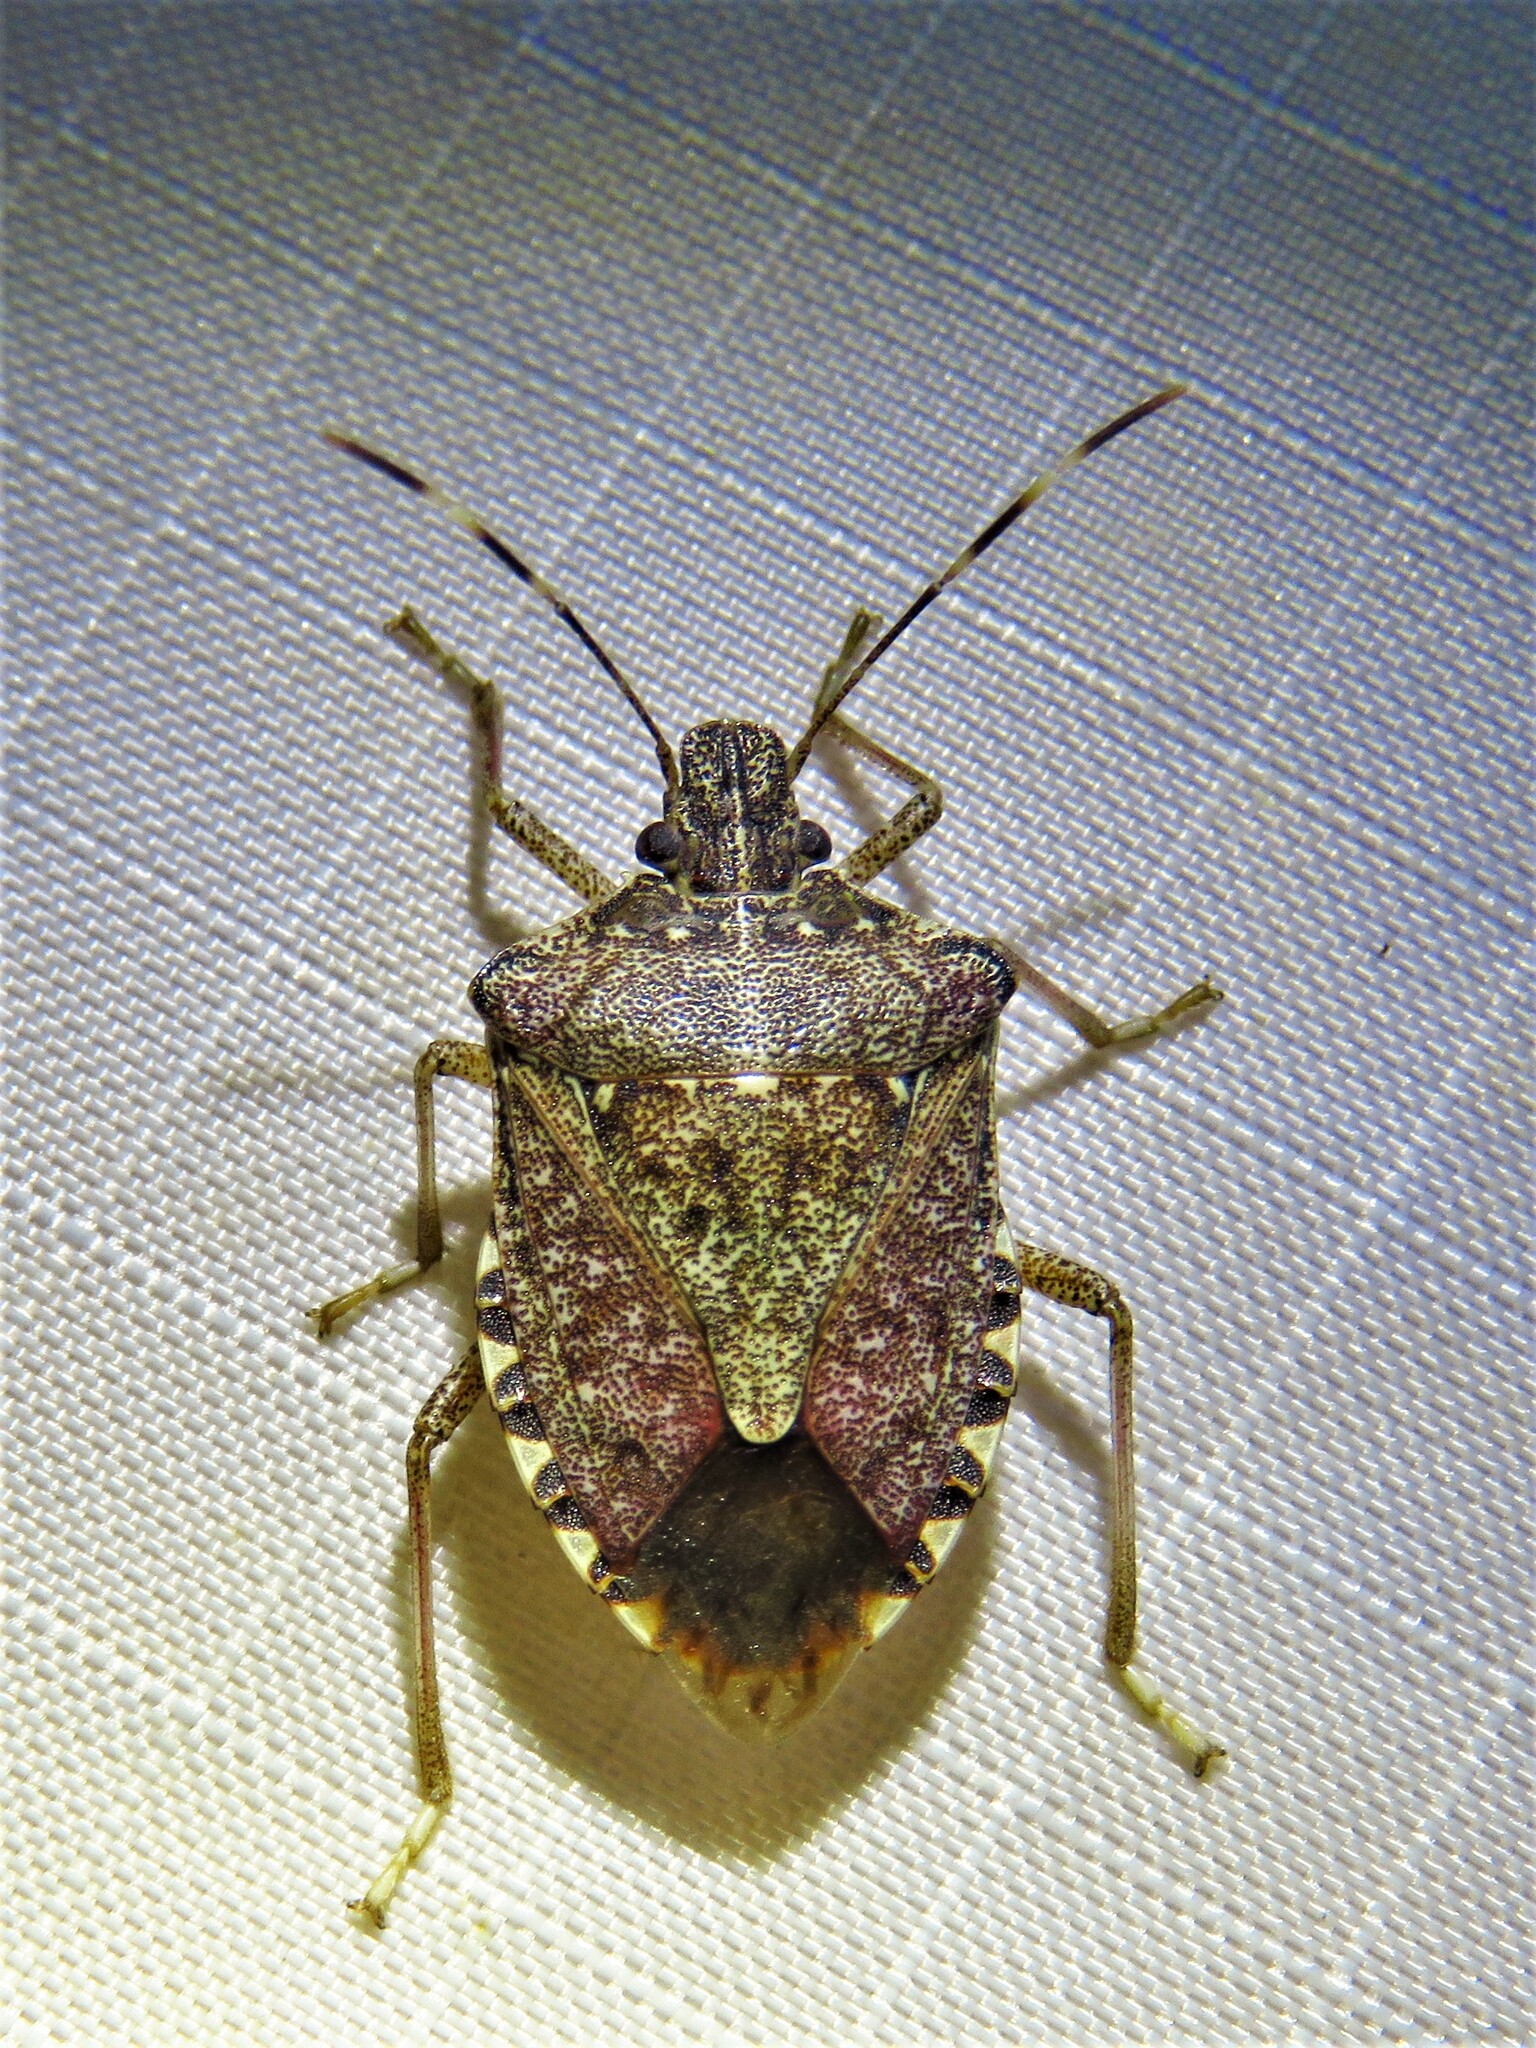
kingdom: Animalia
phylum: Arthropoda
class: Insecta
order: Hemiptera
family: Pentatomidae
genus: Halyomorpha
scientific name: Halyomorpha halys
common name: Brown marmorated stink bug
